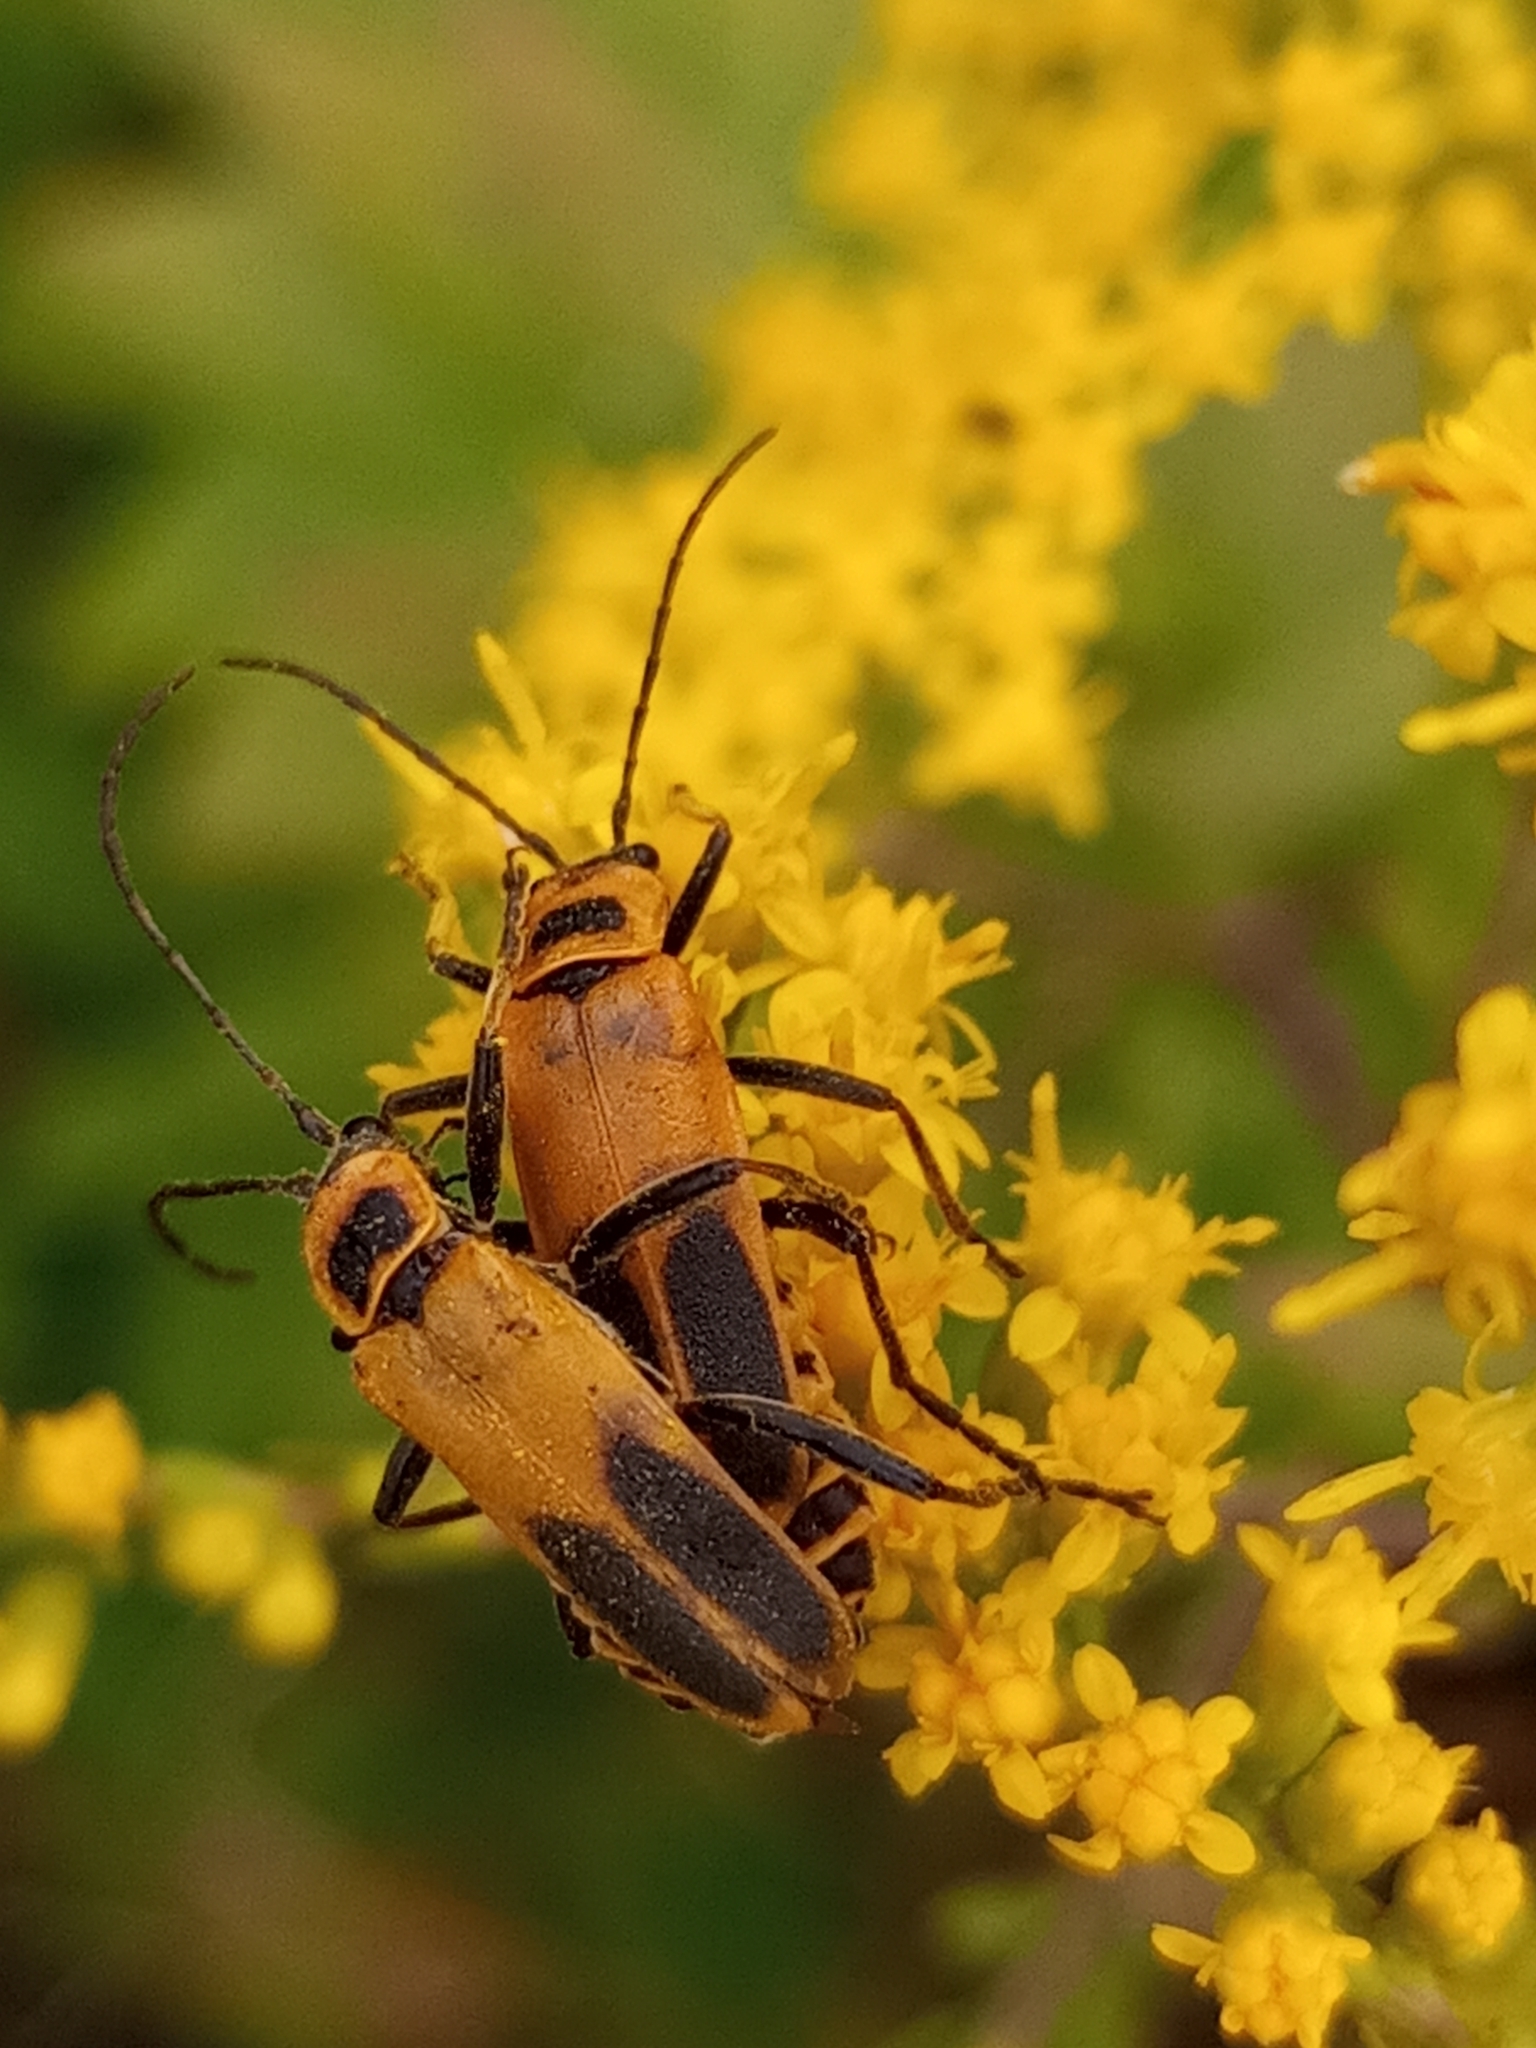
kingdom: Animalia
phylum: Arthropoda
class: Insecta
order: Coleoptera
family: Cantharidae
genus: Chauliognathus
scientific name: Chauliognathus pensylvanicus
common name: Goldenrod soldier beetle
